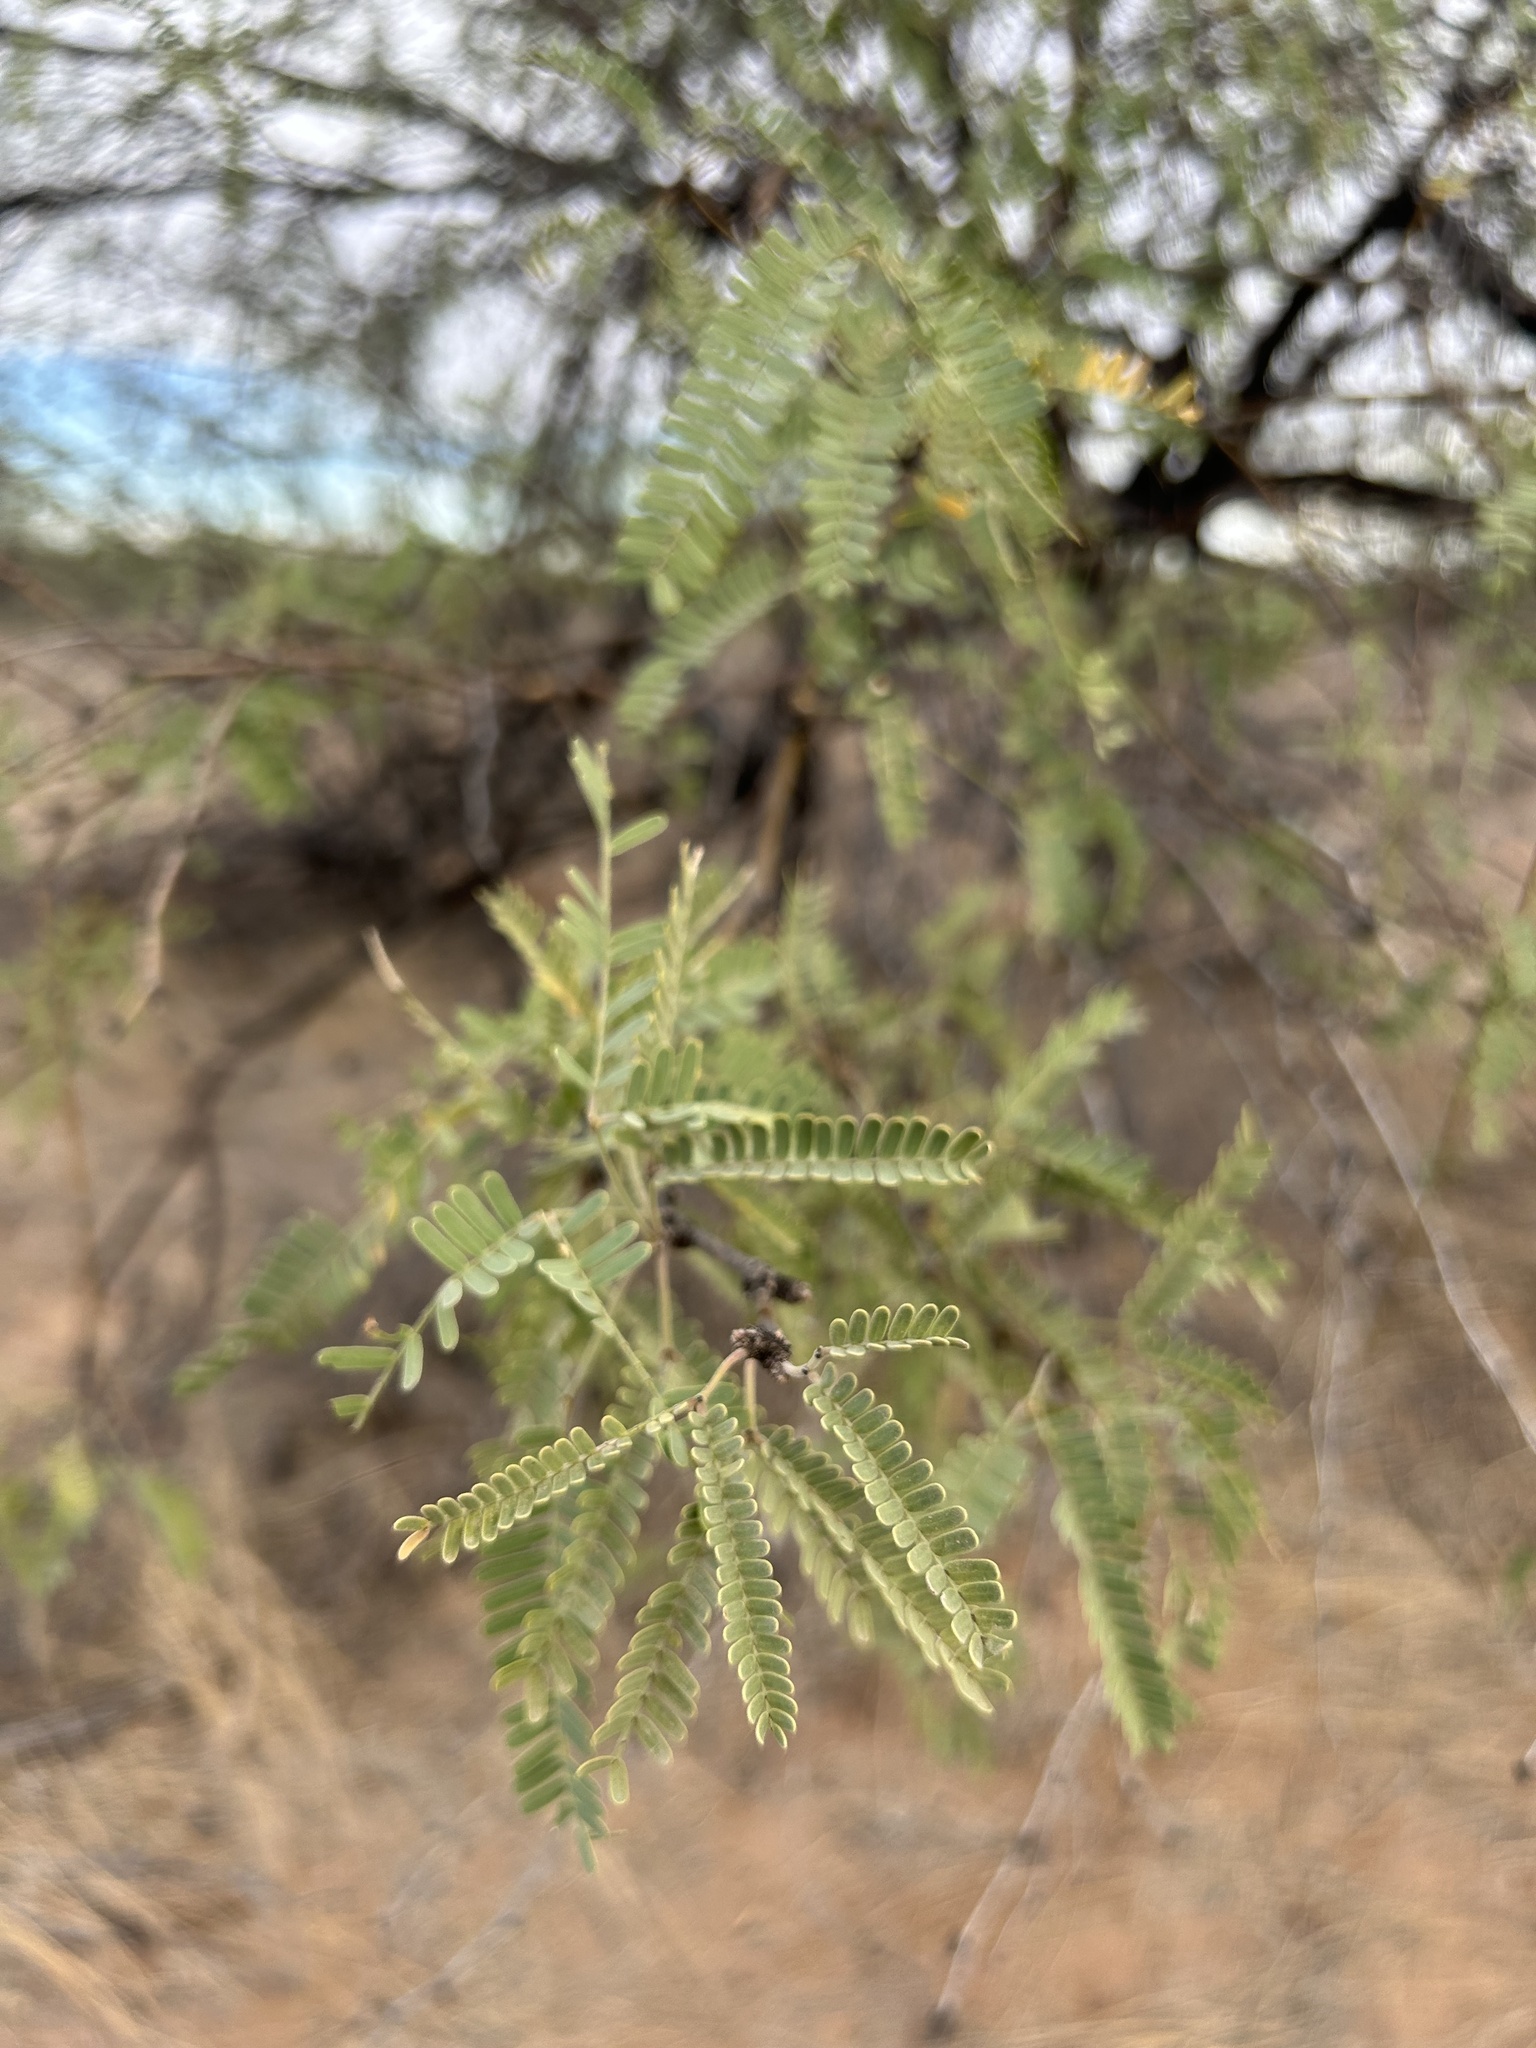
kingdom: Plantae
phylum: Tracheophyta
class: Magnoliopsida
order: Fabales
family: Fabaceae
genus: Prosopis
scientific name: Prosopis velutina
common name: Velvet mesquite
